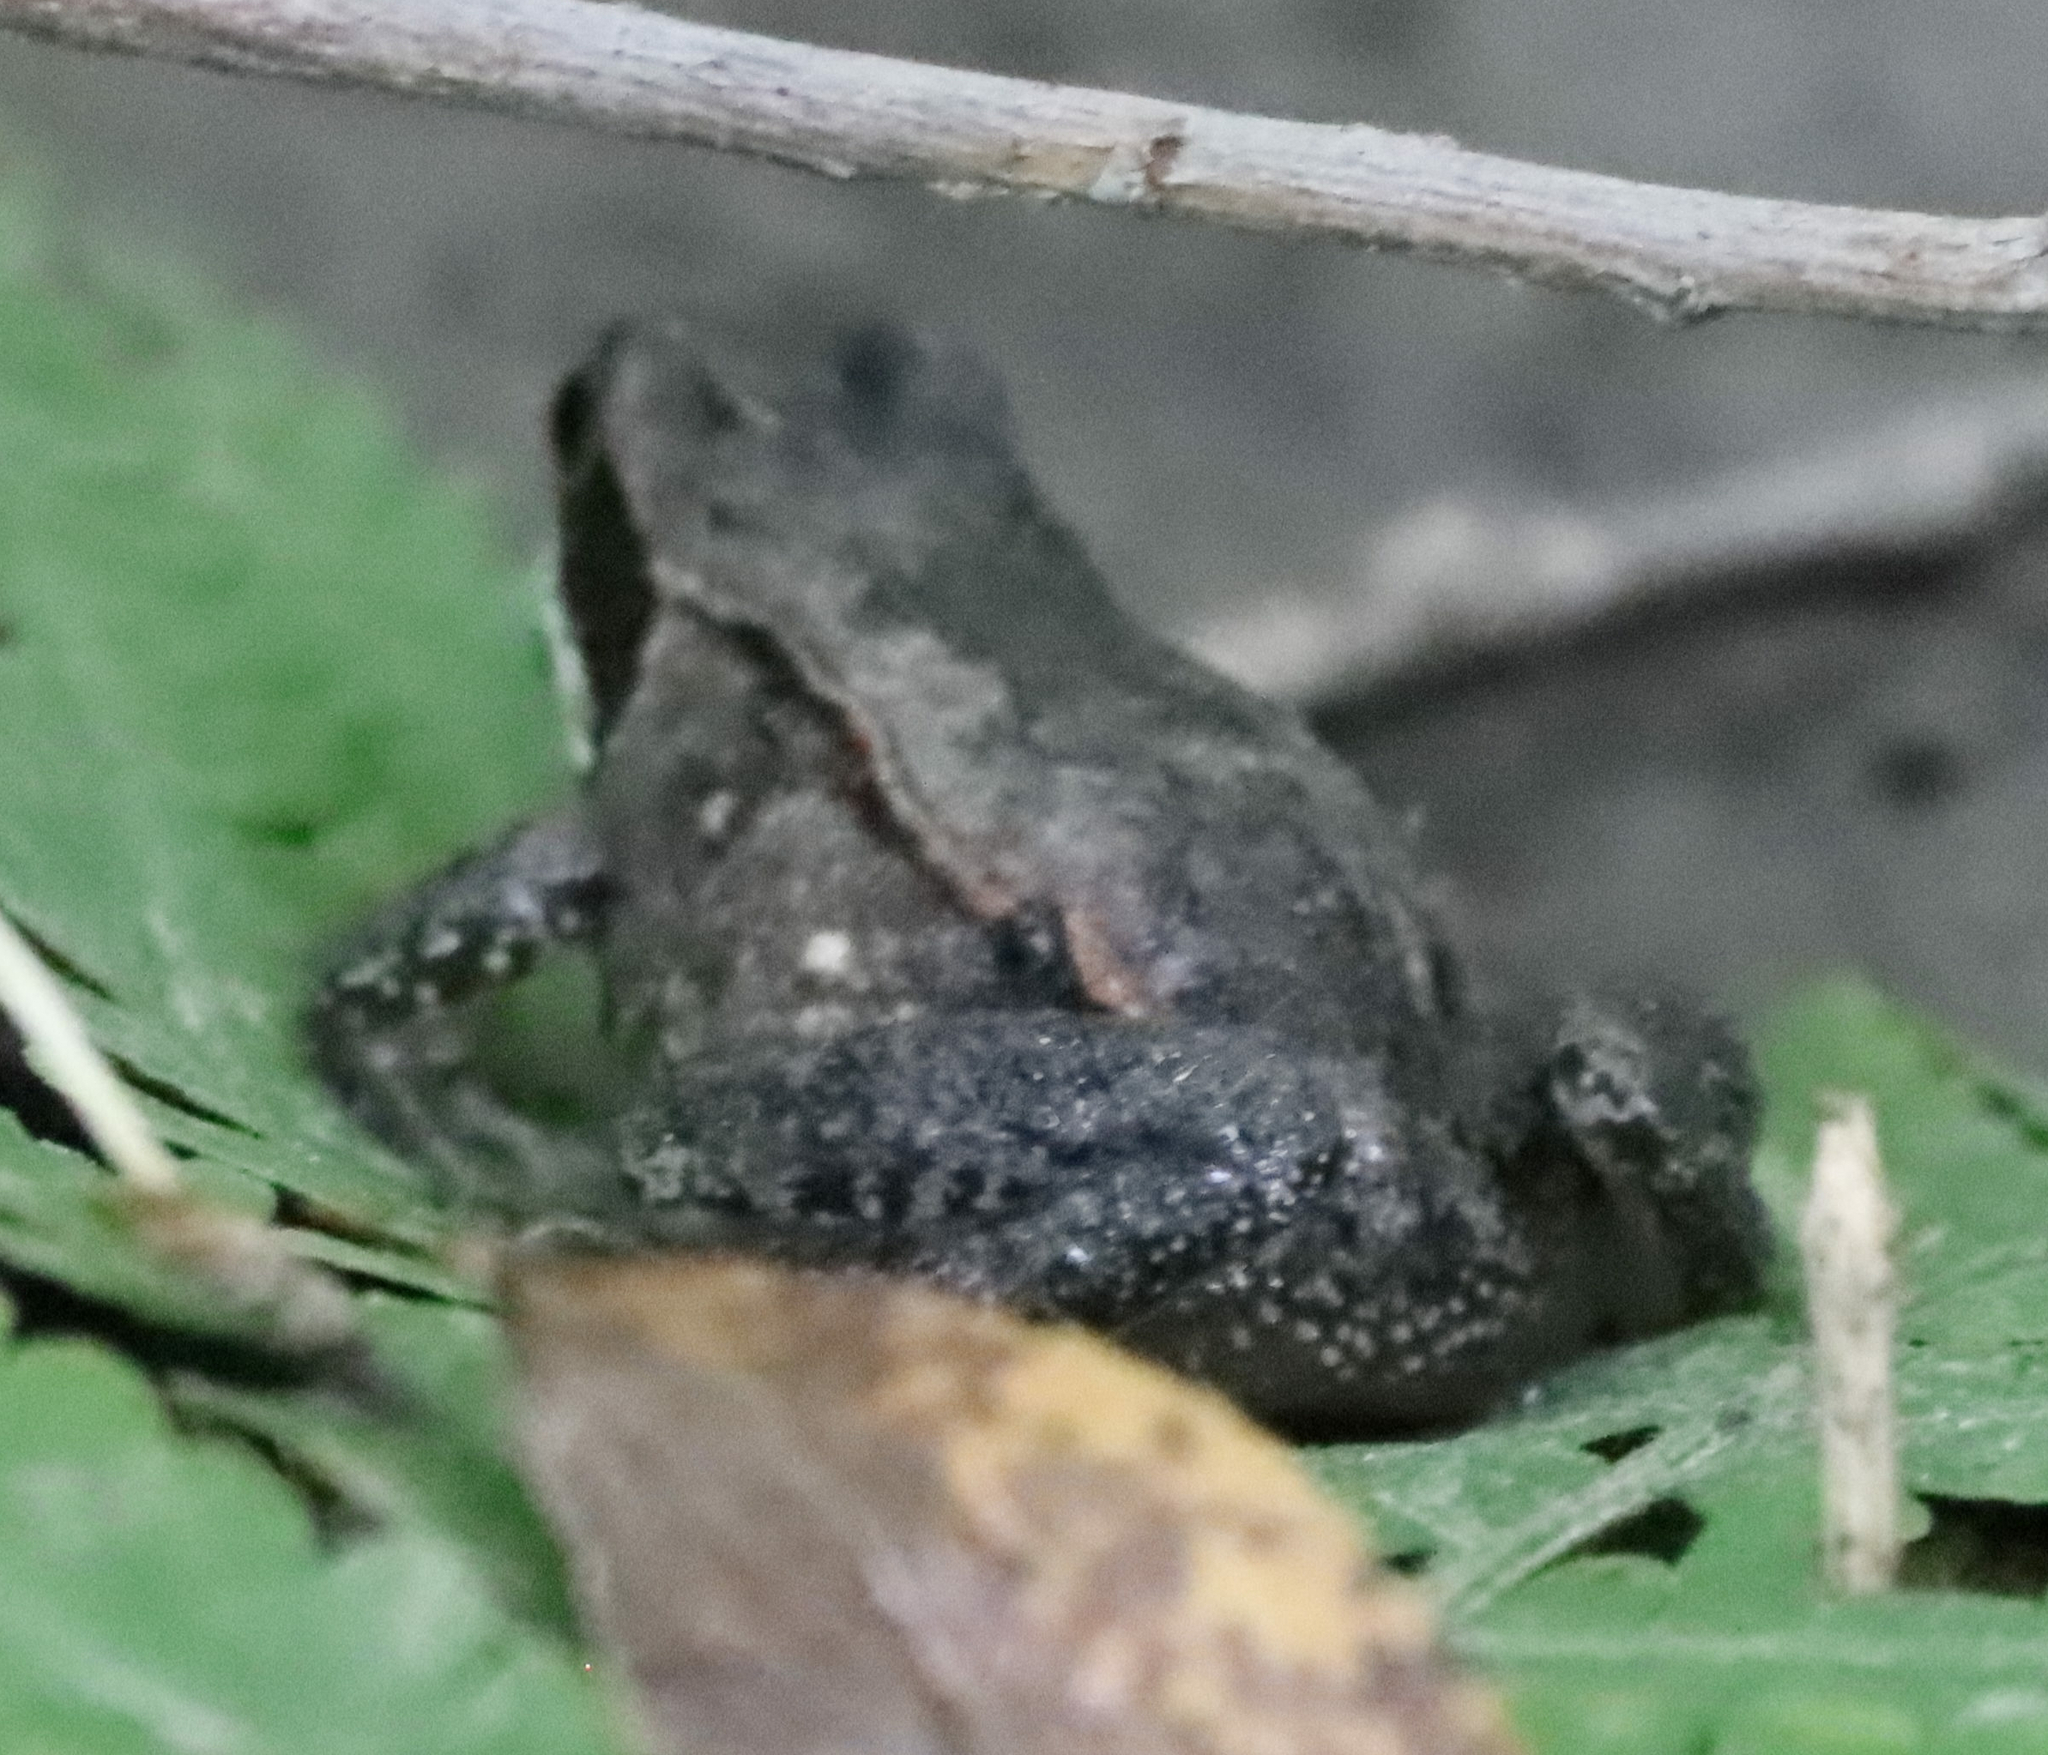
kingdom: Animalia
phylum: Chordata
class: Amphibia
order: Anura
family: Ranidae
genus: Lithobates
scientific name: Lithobates sylvaticus
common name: Wood frog
